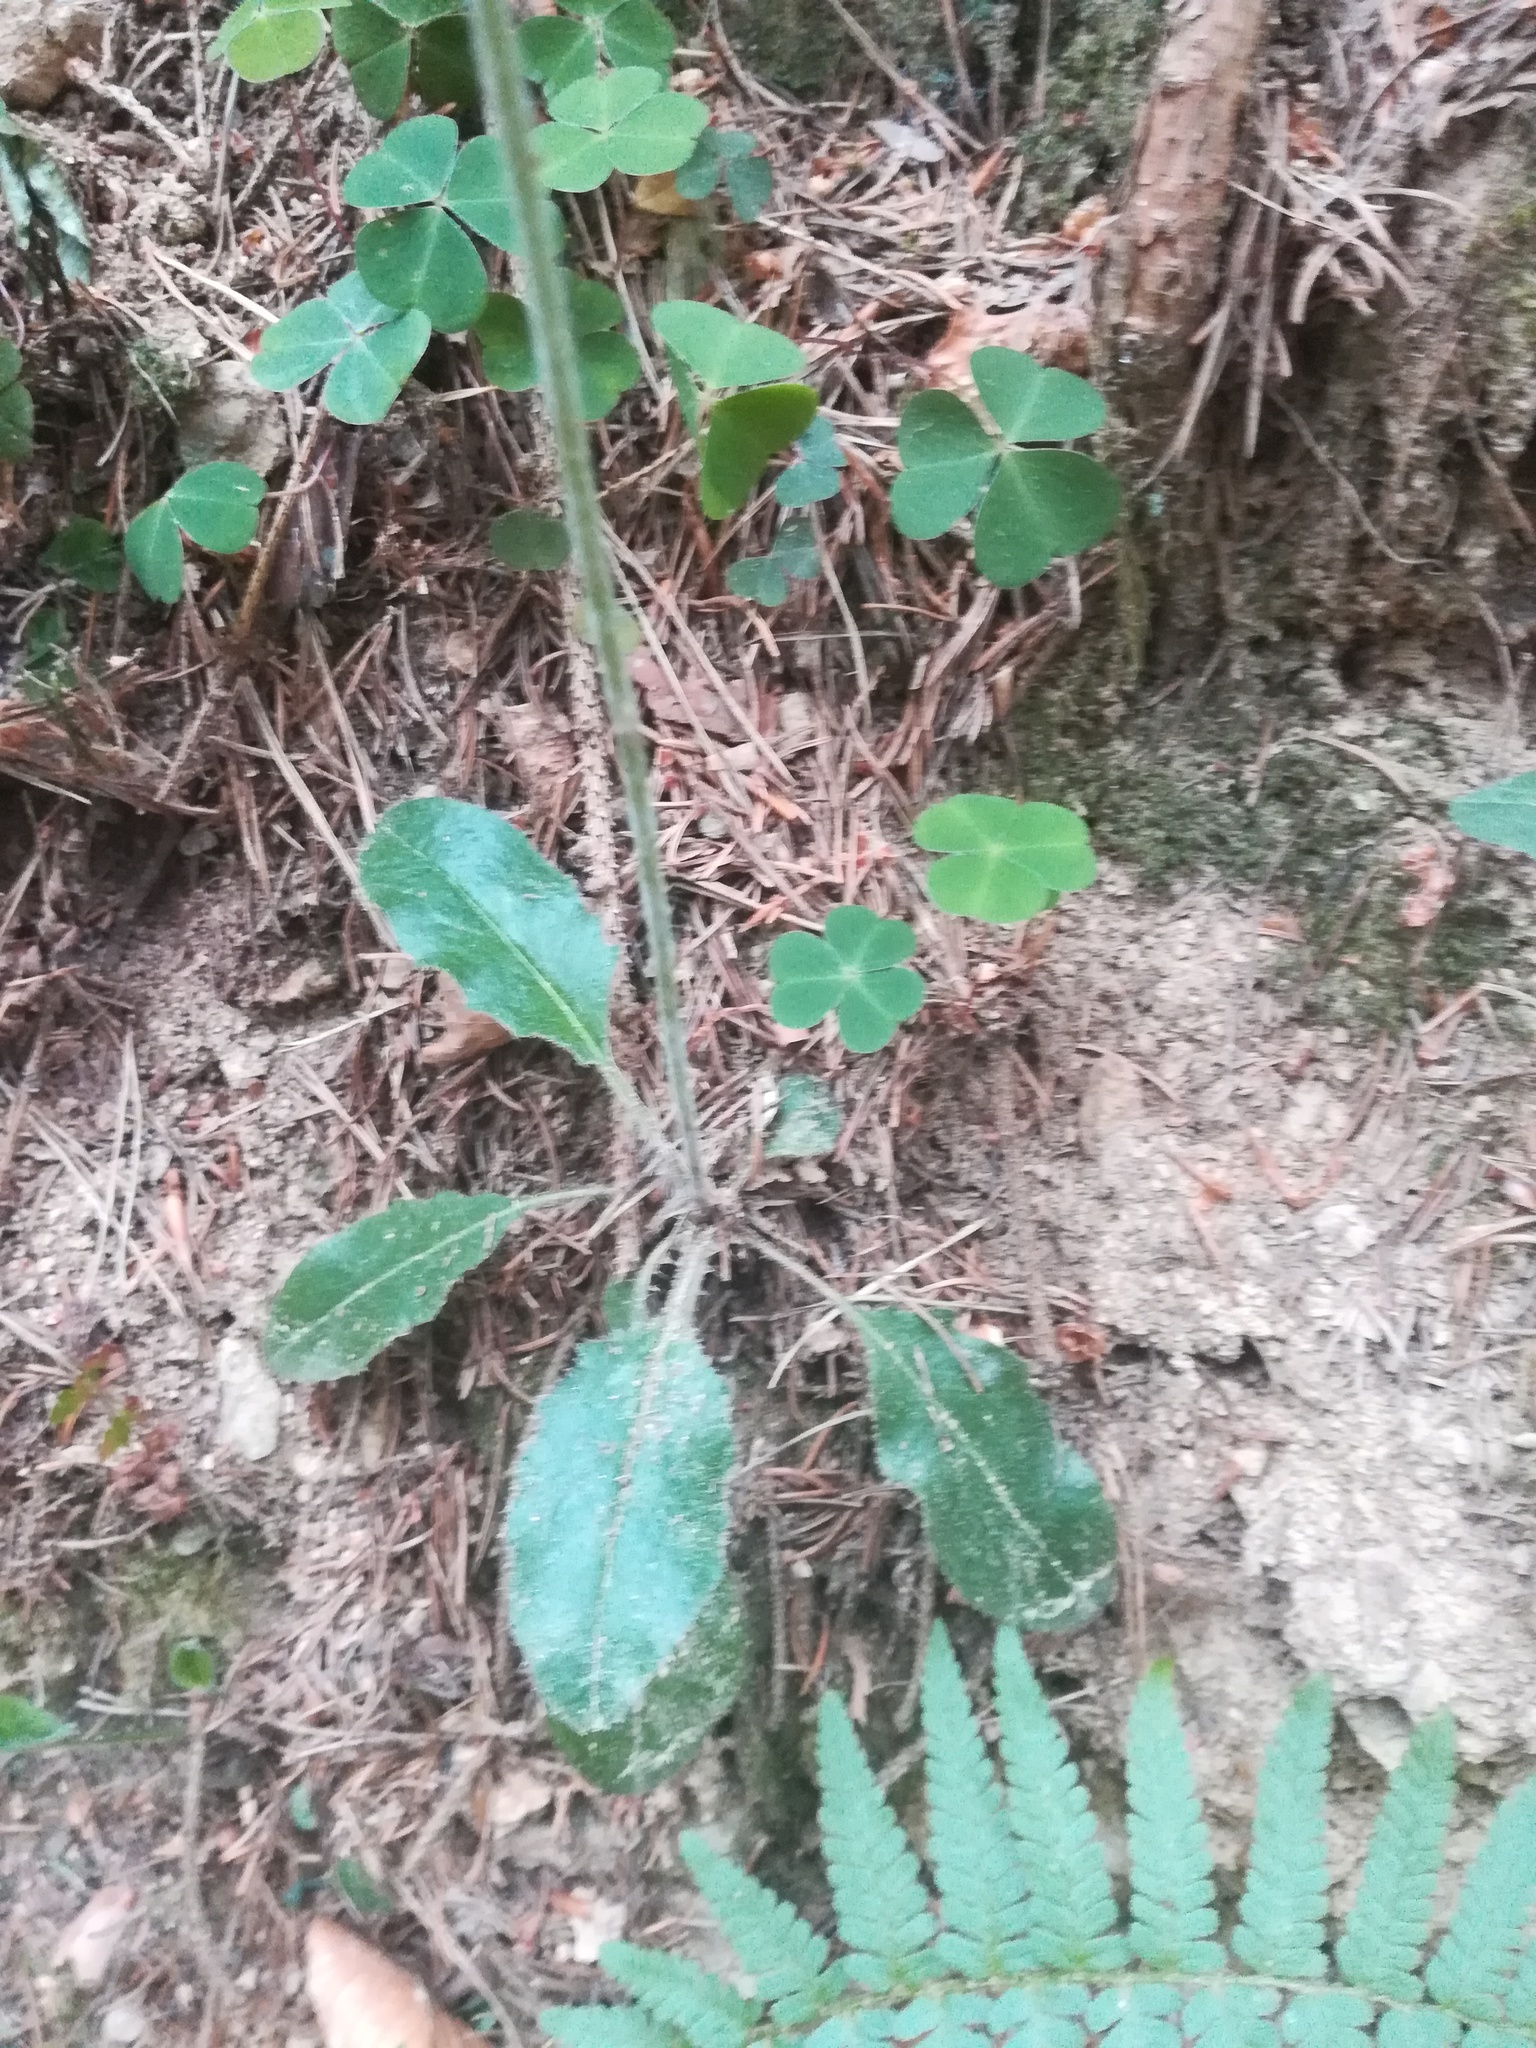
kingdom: Plantae
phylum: Tracheophyta
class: Magnoliopsida
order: Asterales
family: Asteraceae
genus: Hieracium
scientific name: Hieracium murorum
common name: Wall hawkweed
